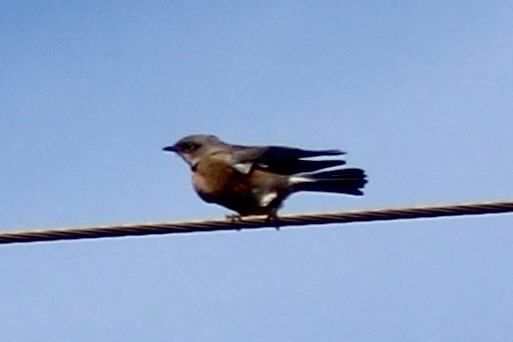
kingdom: Animalia
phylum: Chordata
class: Aves
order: Passeriformes
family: Turdidae
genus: Sialia
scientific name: Sialia mexicana
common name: Western bluebird
